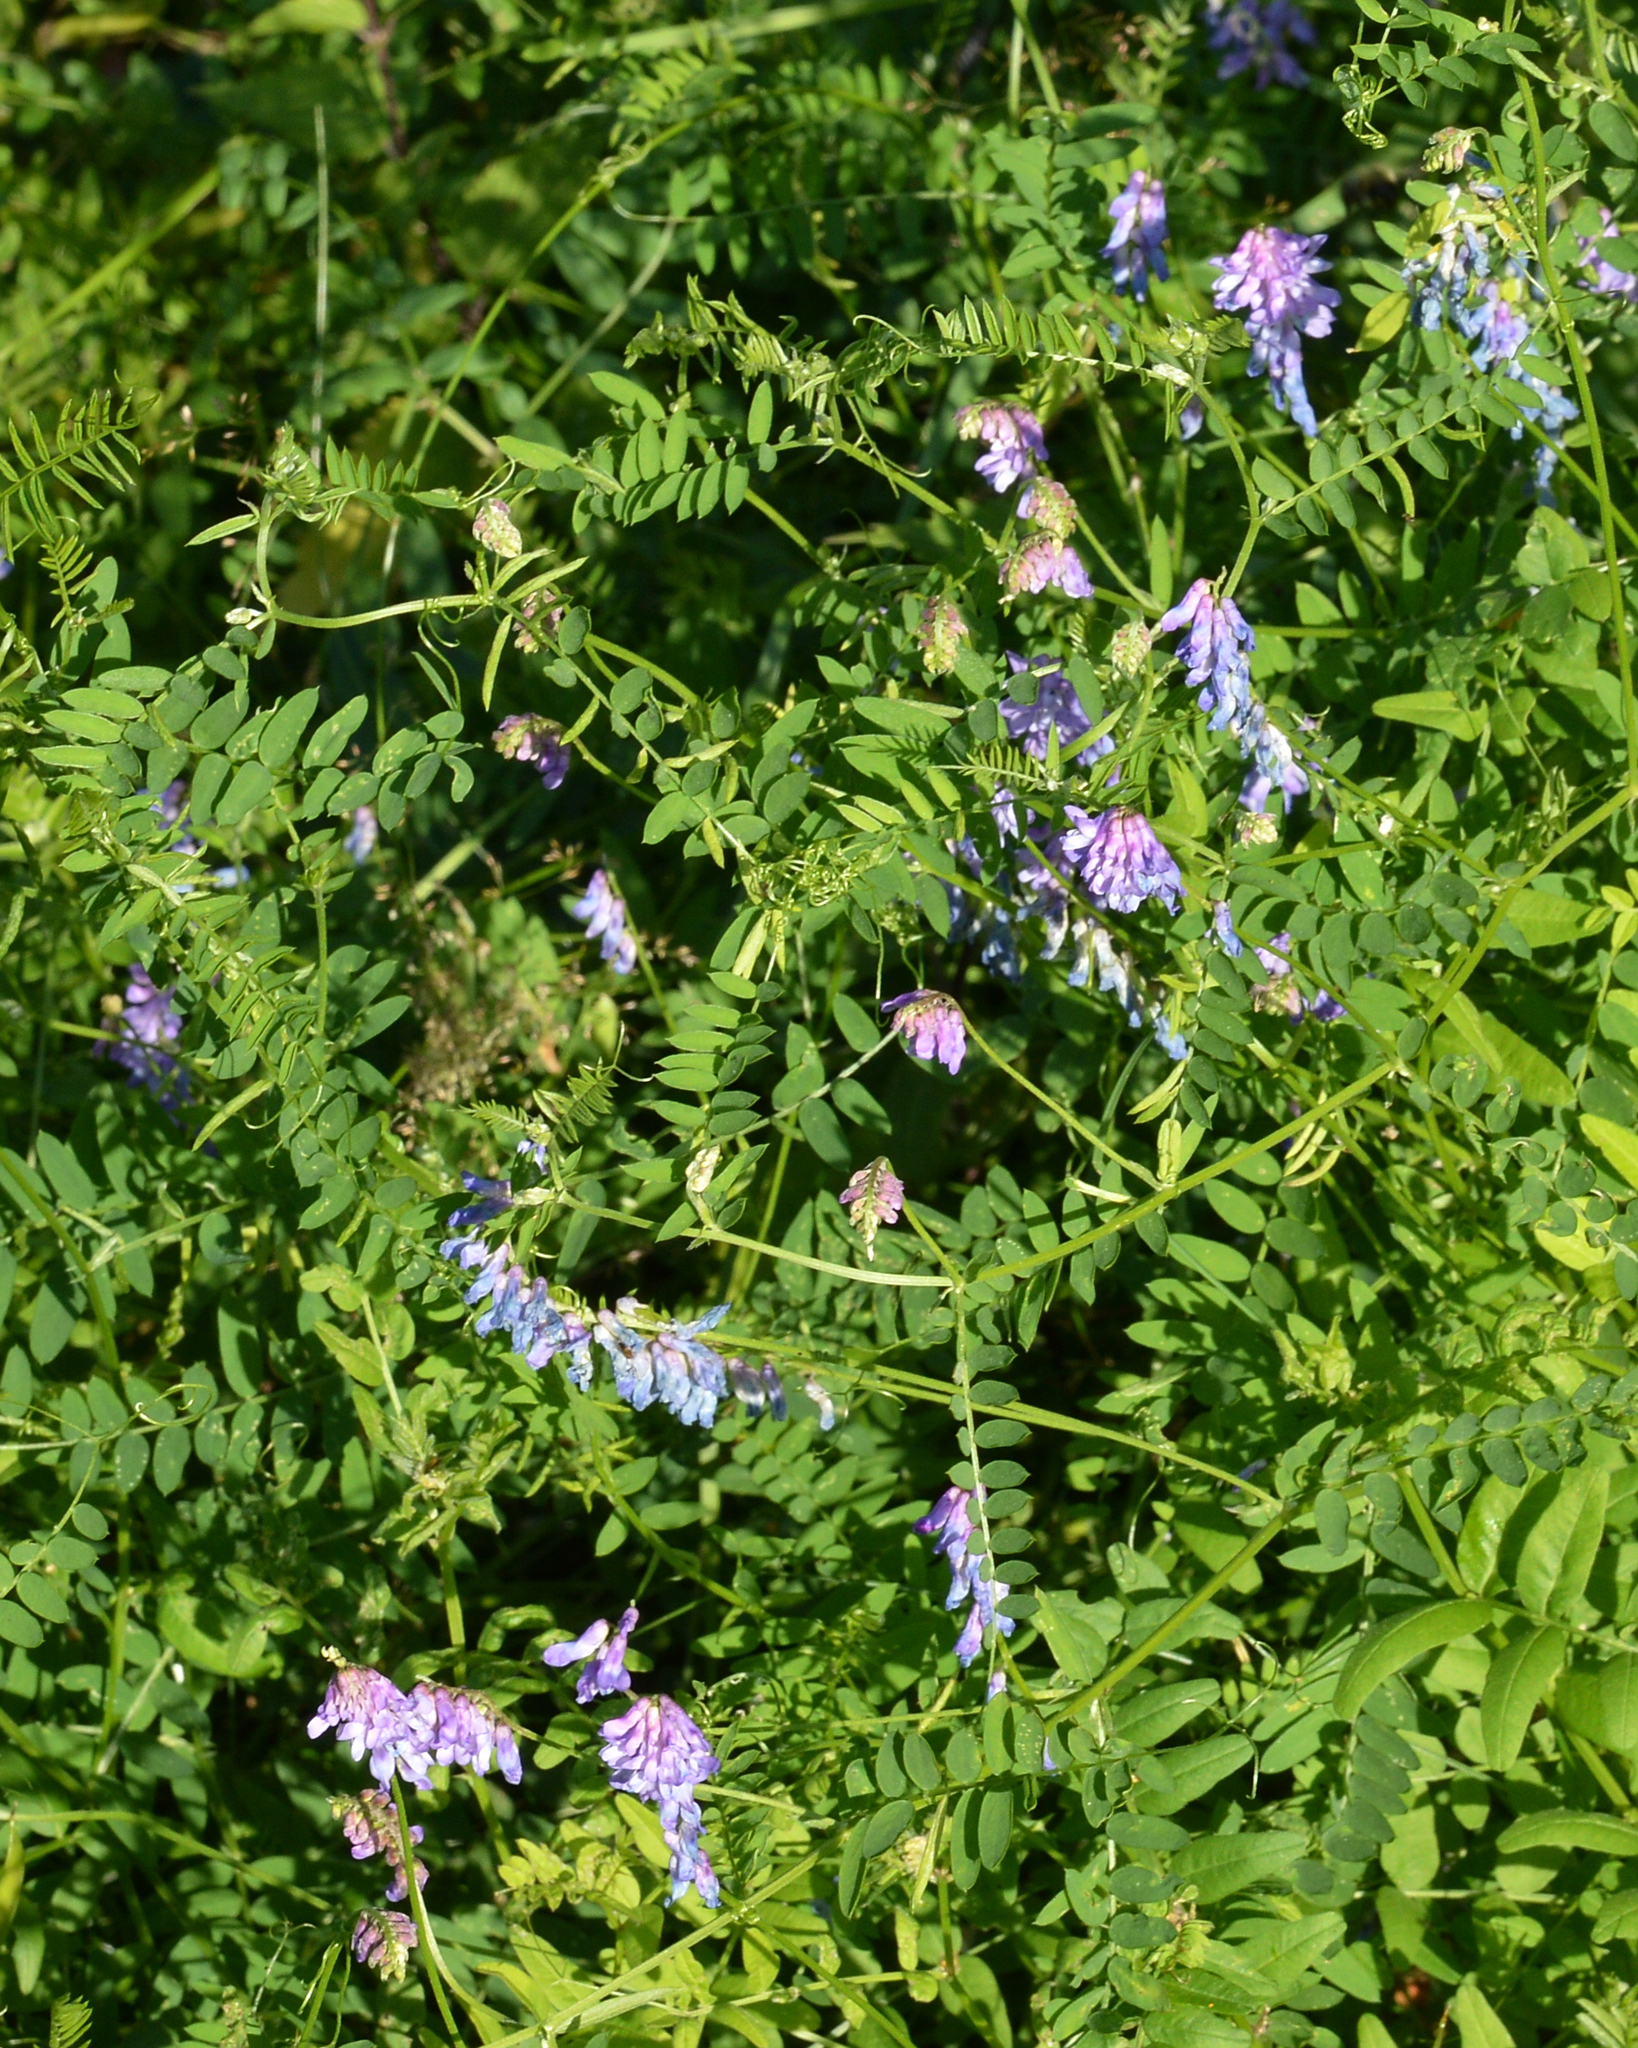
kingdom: Plantae
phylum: Tracheophyta
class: Magnoliopsida
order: Fabales
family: Fabaceae
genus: Vicia
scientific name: Vicia cracca
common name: Bird vetch
